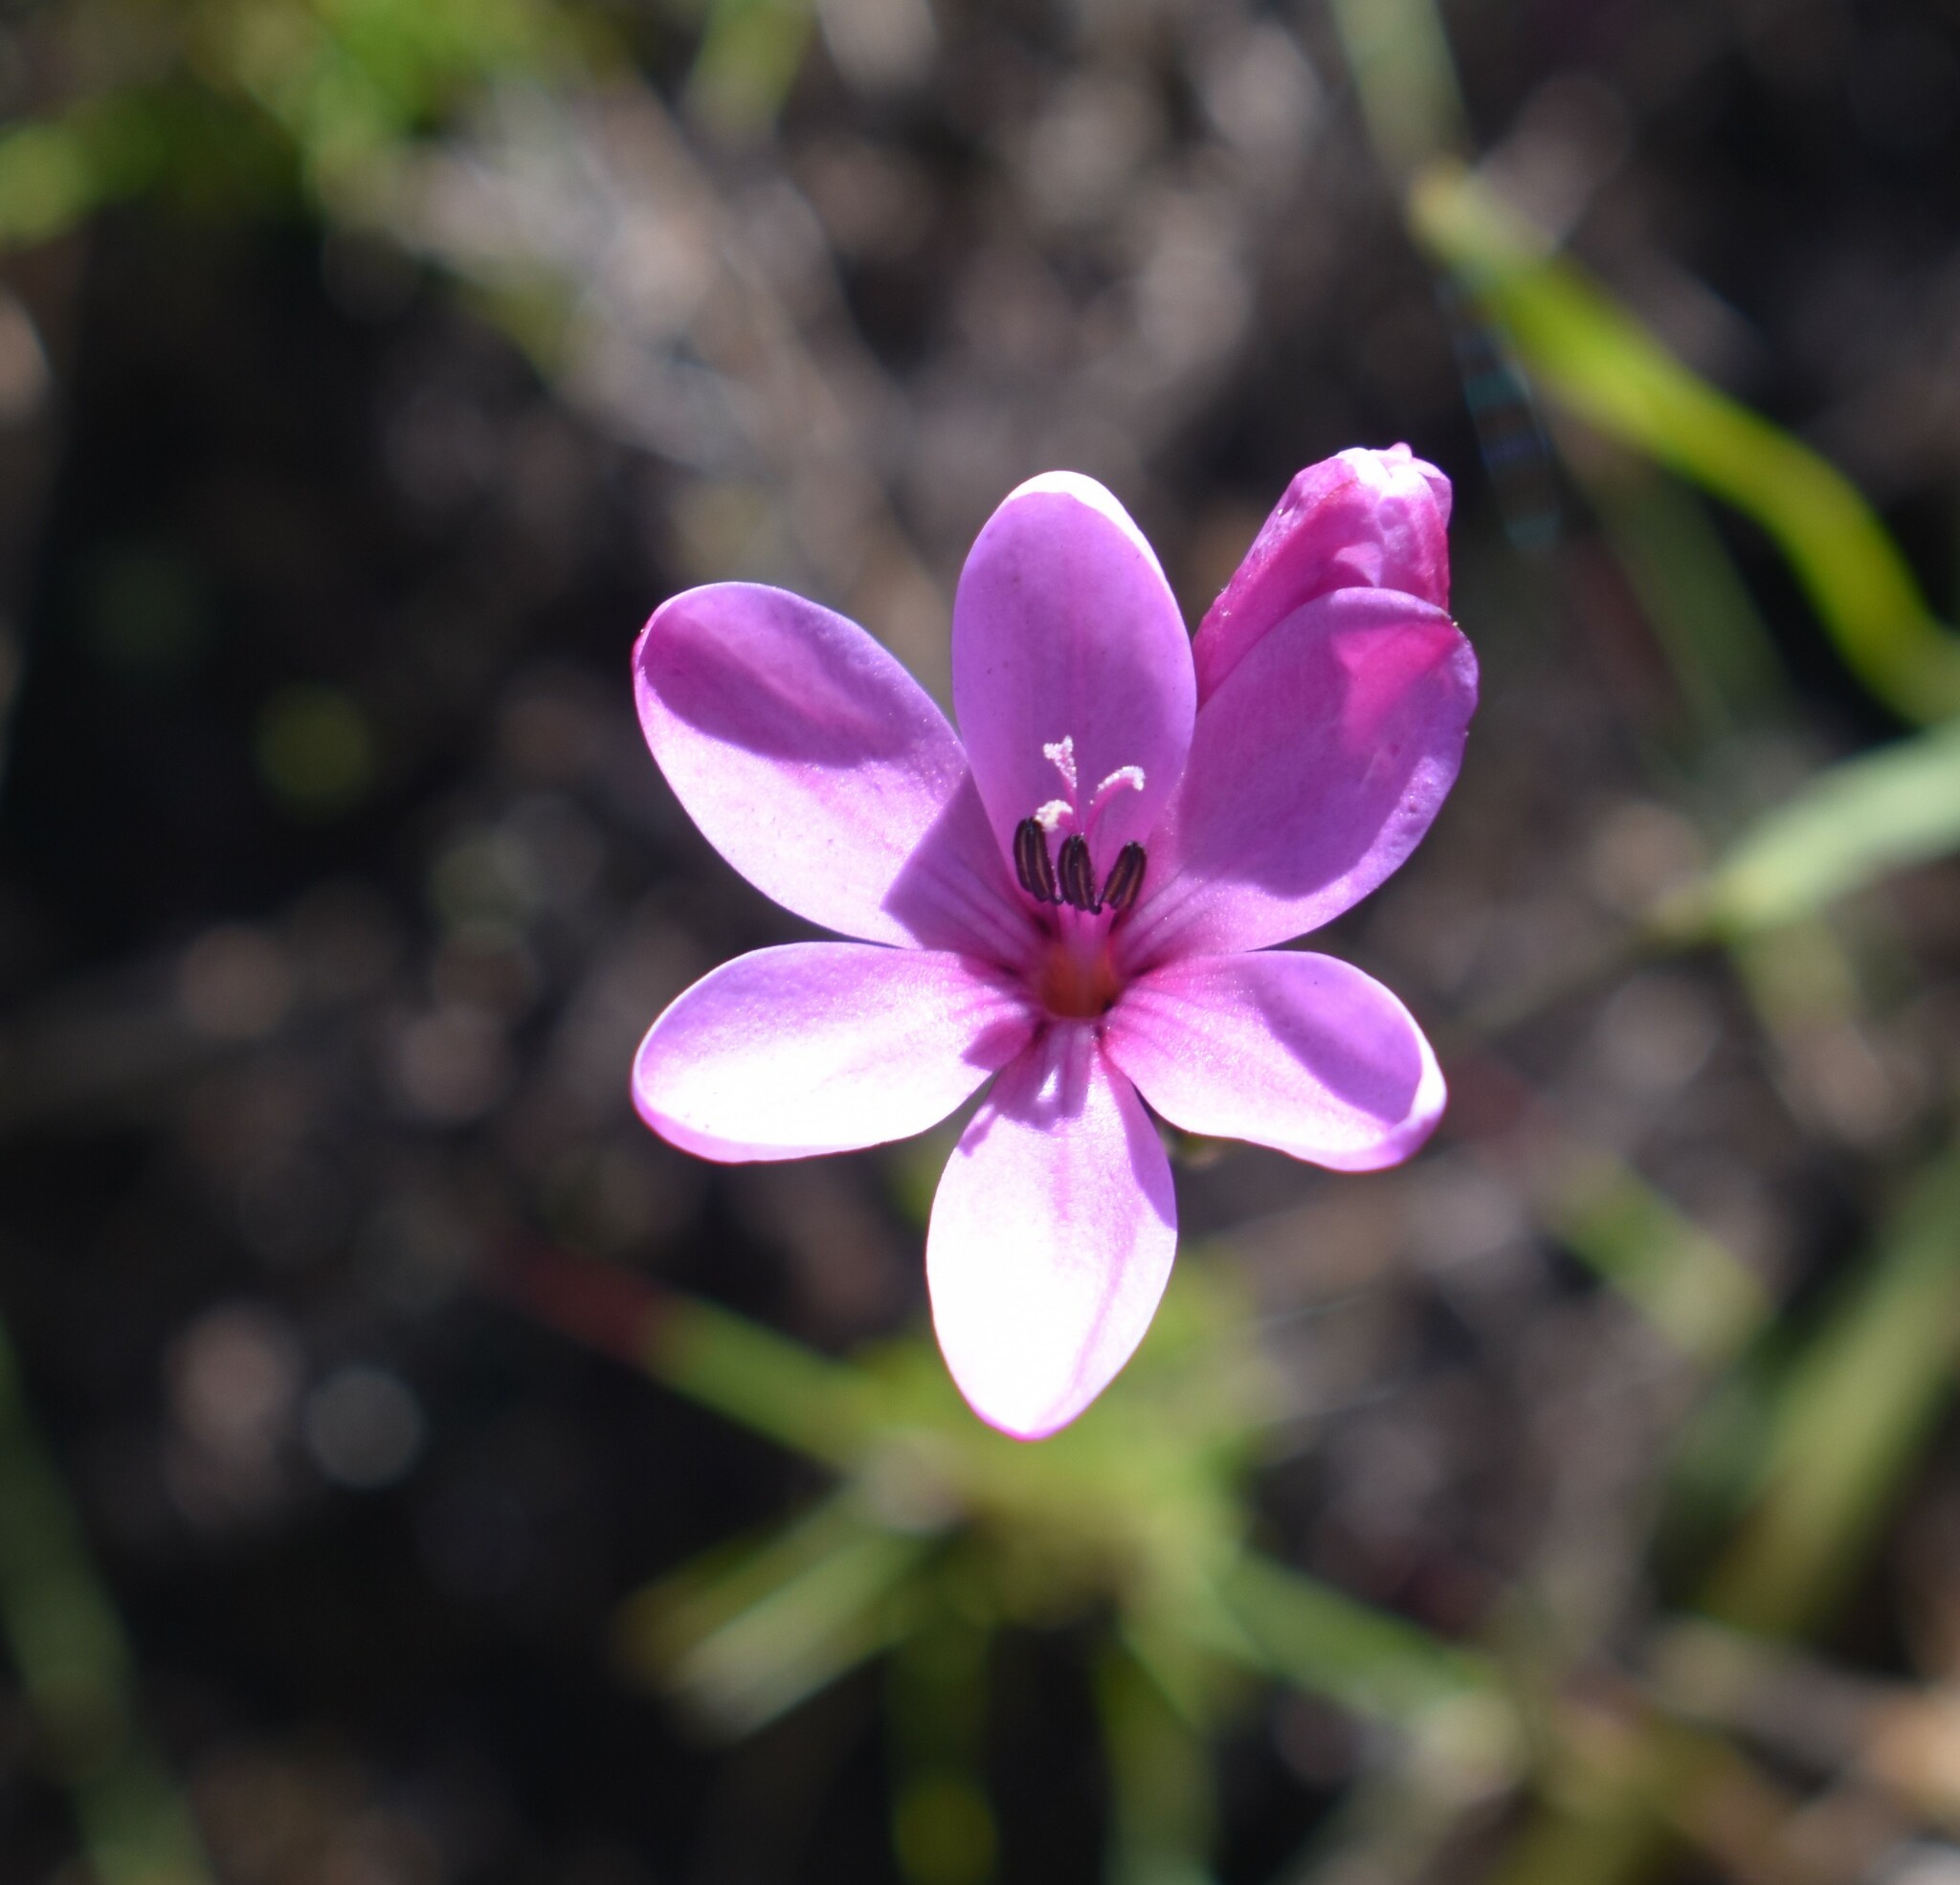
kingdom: Plantae
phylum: Tracheophyta
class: Liliopsida
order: Asparagales
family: Iridaceae
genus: Ixia
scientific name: Ixia fucata
